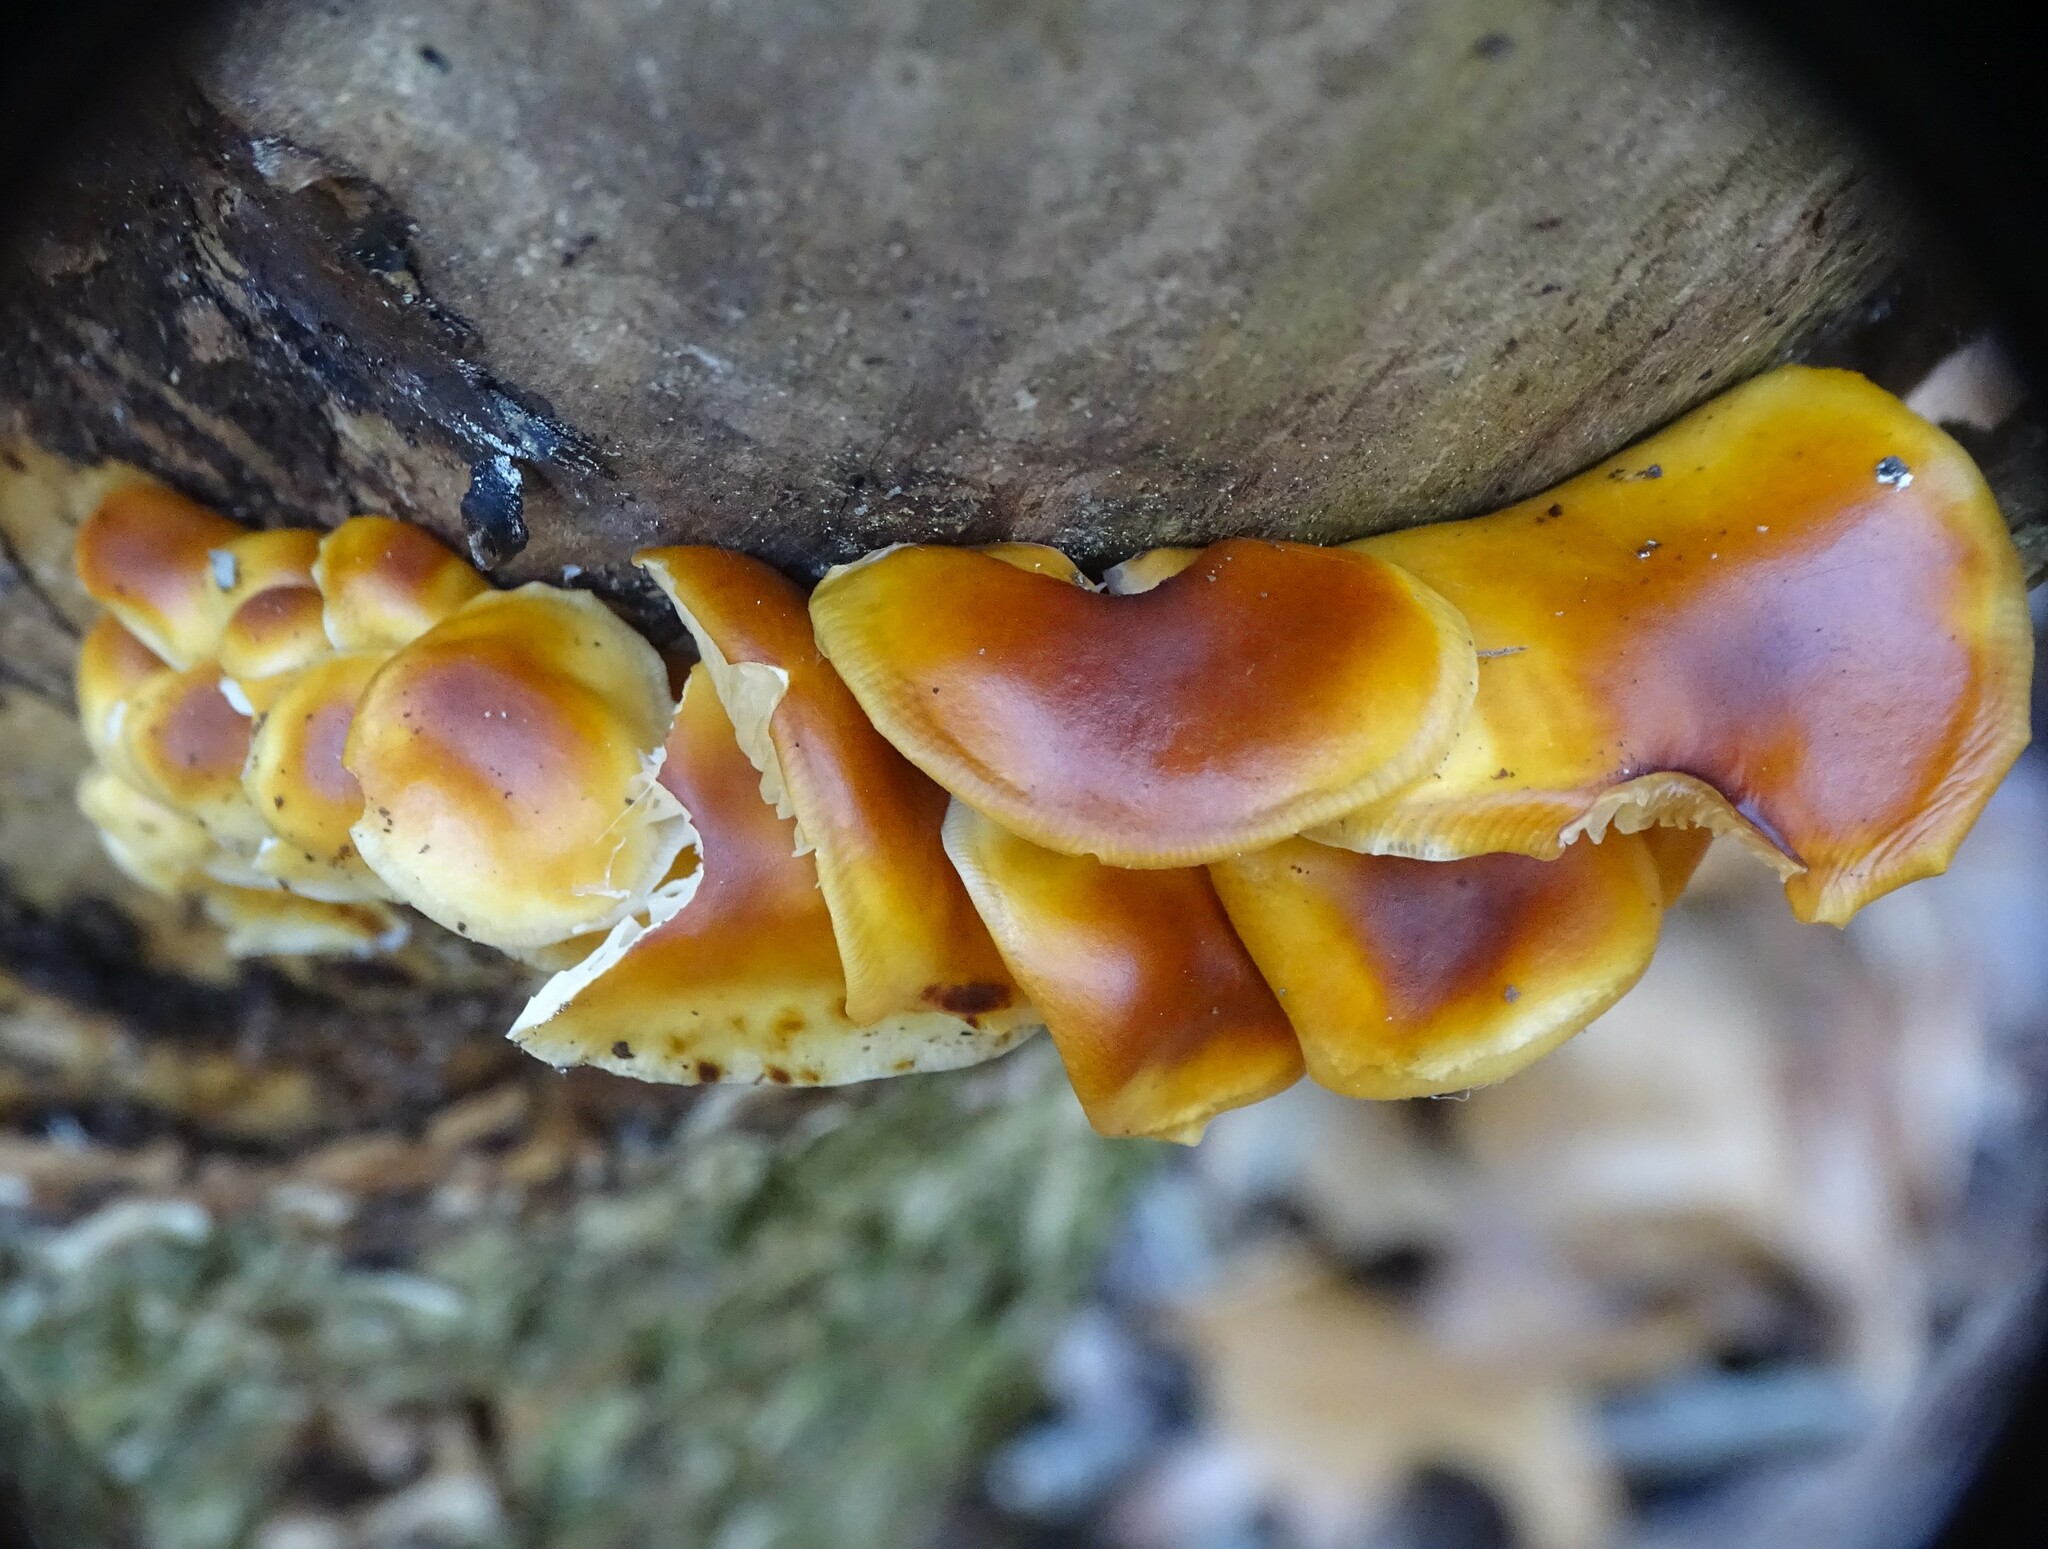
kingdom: Fungi
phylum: Basidiomycota
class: Agaricomycetes
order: Agaricales
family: Physalacriaceae
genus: Flammulina
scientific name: Flammulina velutipes
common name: Velvet shank
